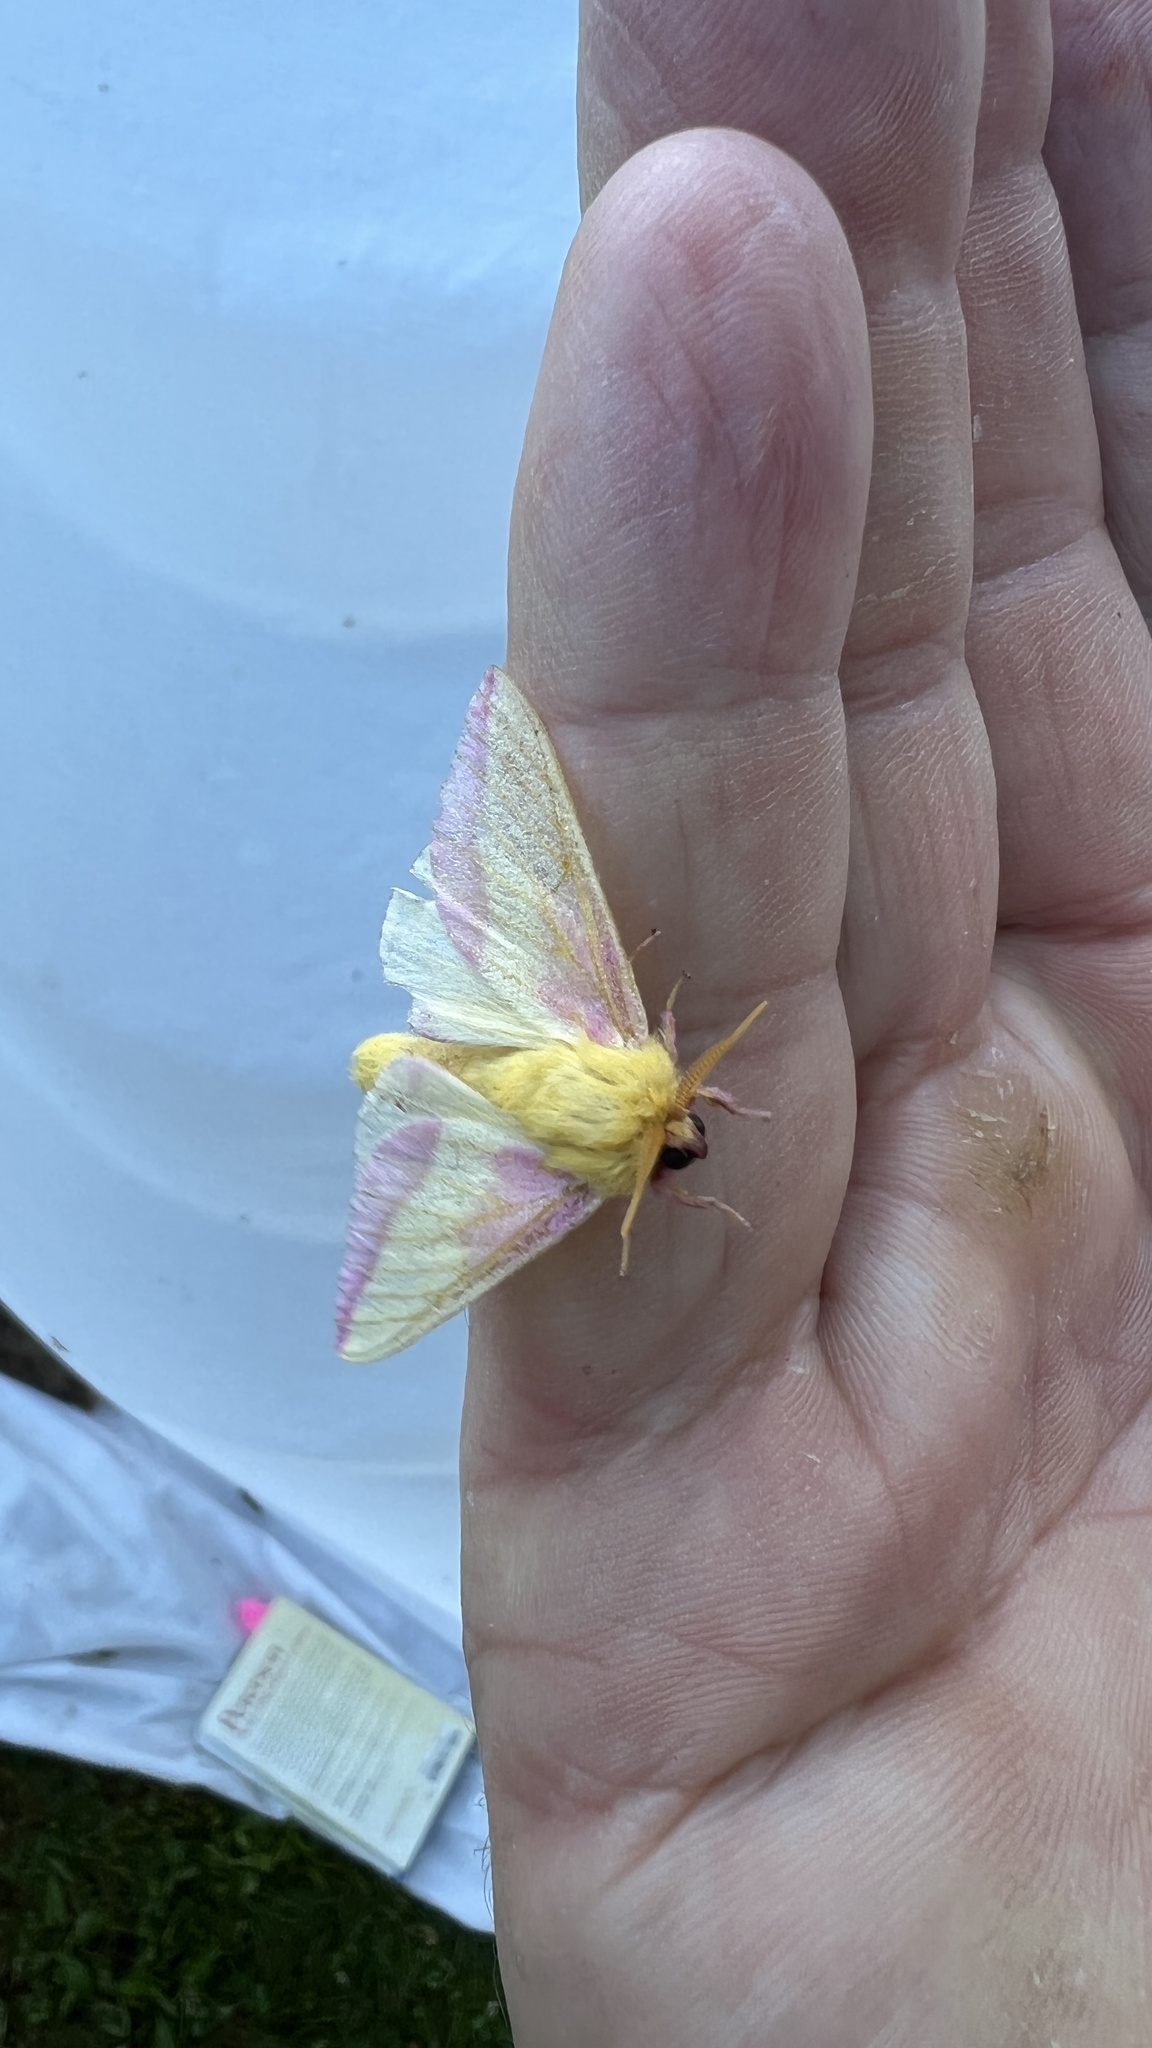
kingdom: Animalia
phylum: Arthropoda
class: Insecta
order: Lepidoptera
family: Saturniidae
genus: Dryocampa
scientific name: Dryocampa rubicunda
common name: Rosy maple moth
